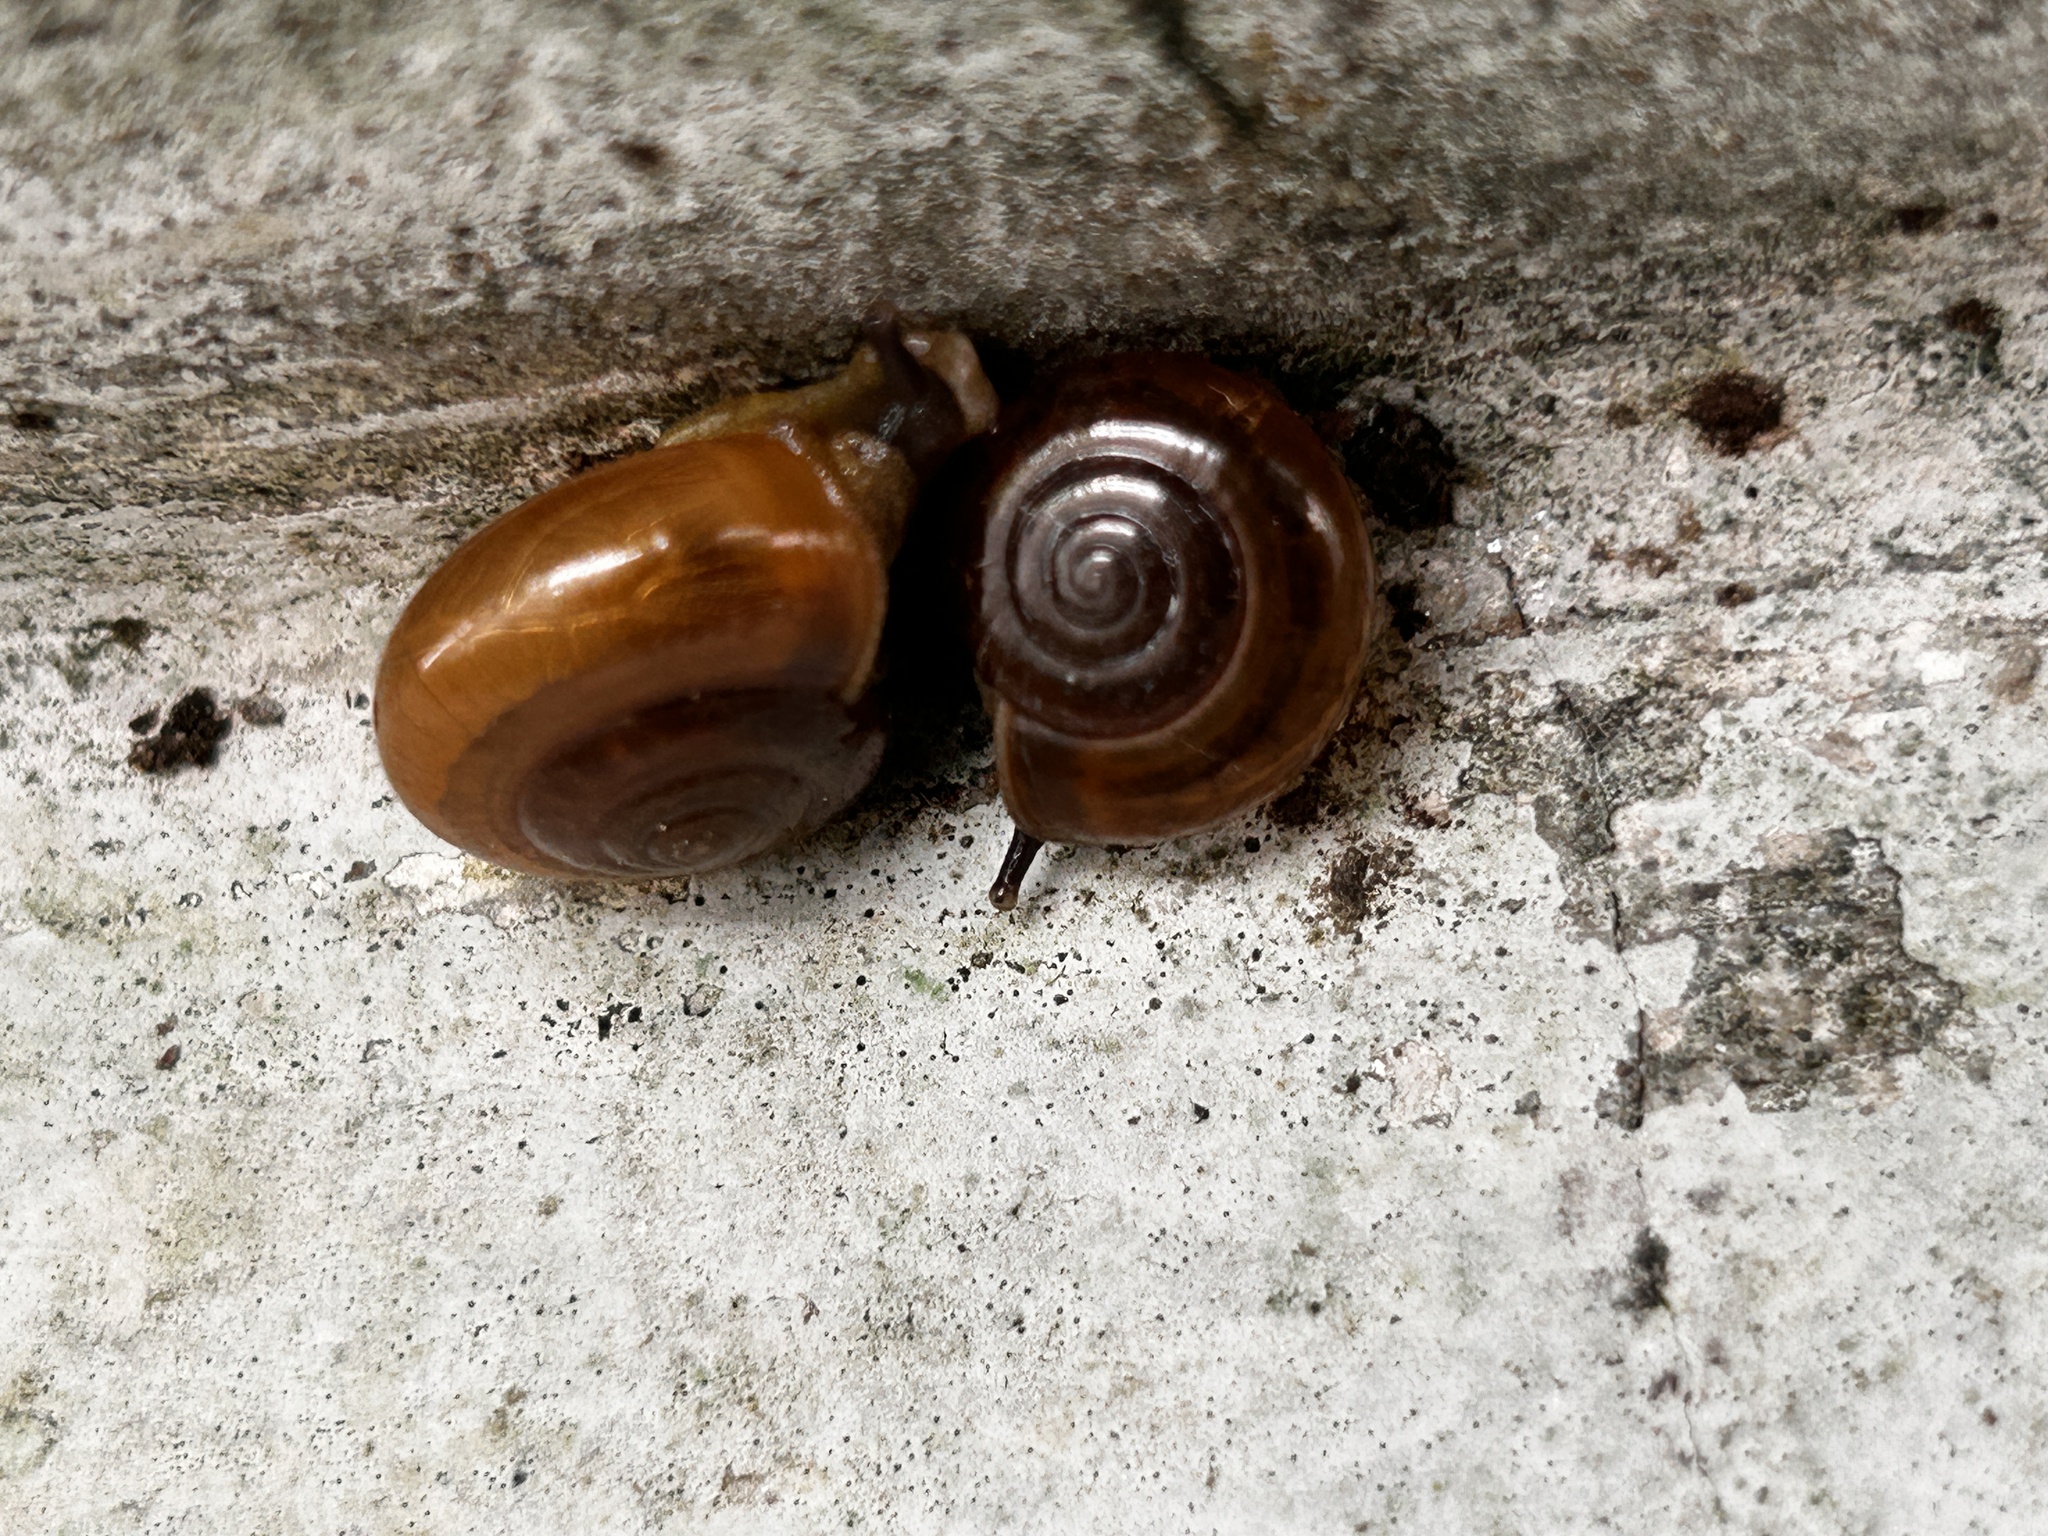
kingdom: Animalia
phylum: Mollusca
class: Gastropoda
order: Stylommatophora
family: Ariophantidae
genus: Sarika
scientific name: Sarika resplendens
